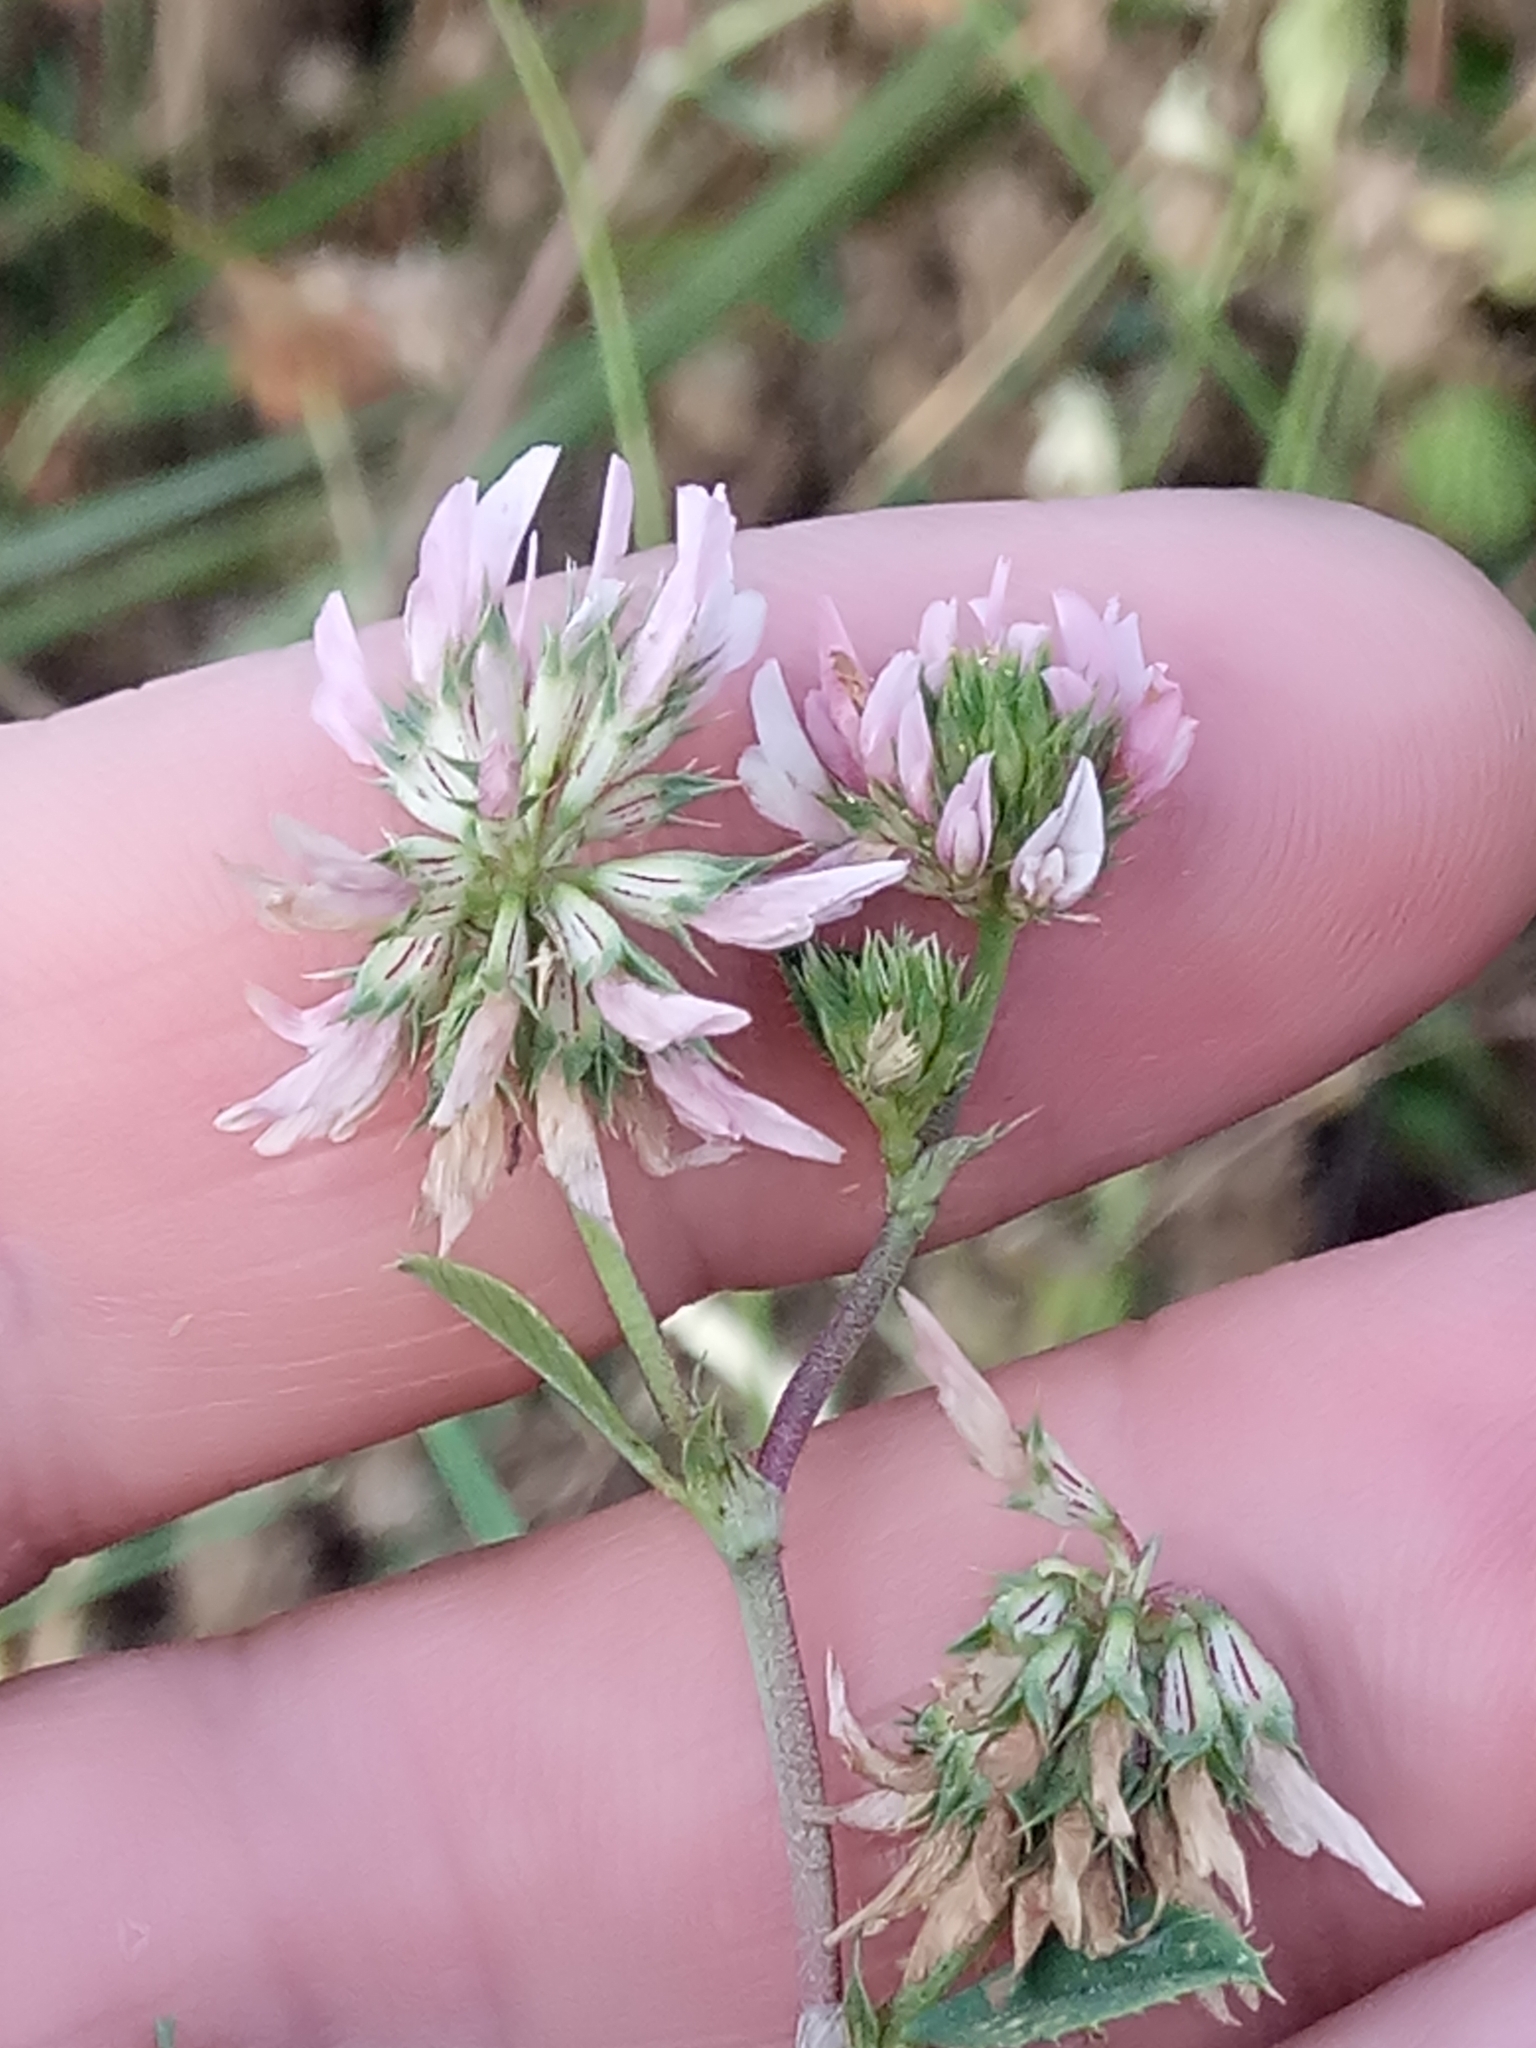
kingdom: Plantae
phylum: Tracheophyta
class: Magnoliopsida
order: Fabales
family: Fabaceae
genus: Trifolium
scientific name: Trifolium nigrescens
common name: Small white clover
